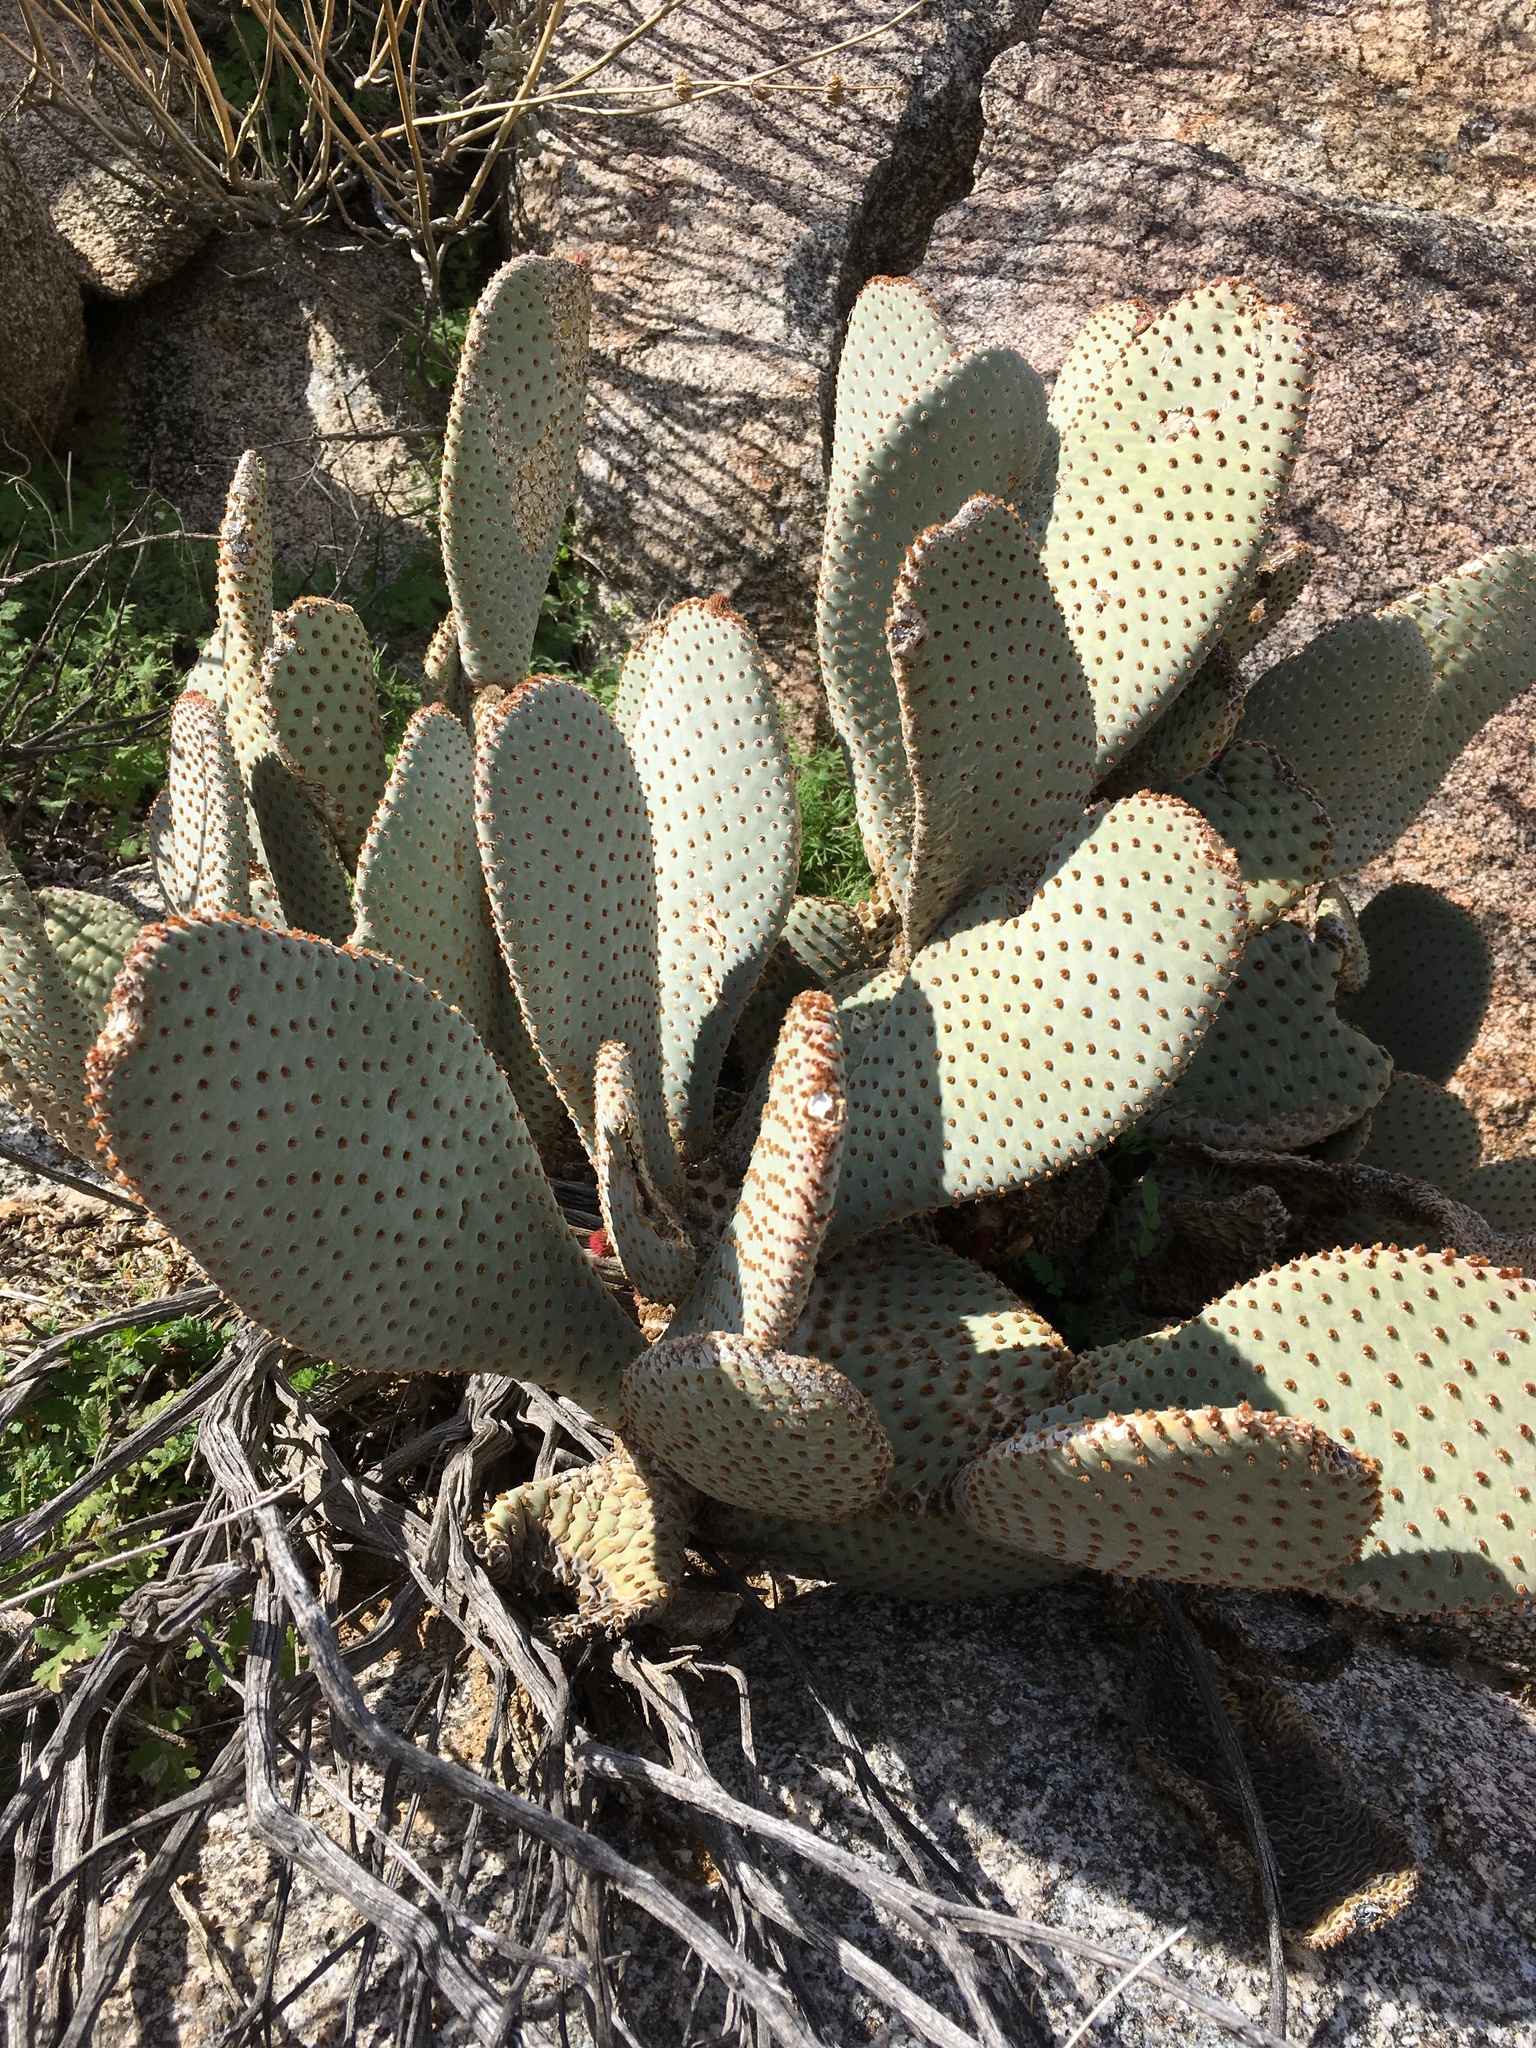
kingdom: Plantae
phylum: Tracheophyta
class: Magnoliopsida
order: Caryophyllales
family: Cactaceae
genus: Opuntia
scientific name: Opuntia basilaris
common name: Beavertail prickly-pear
